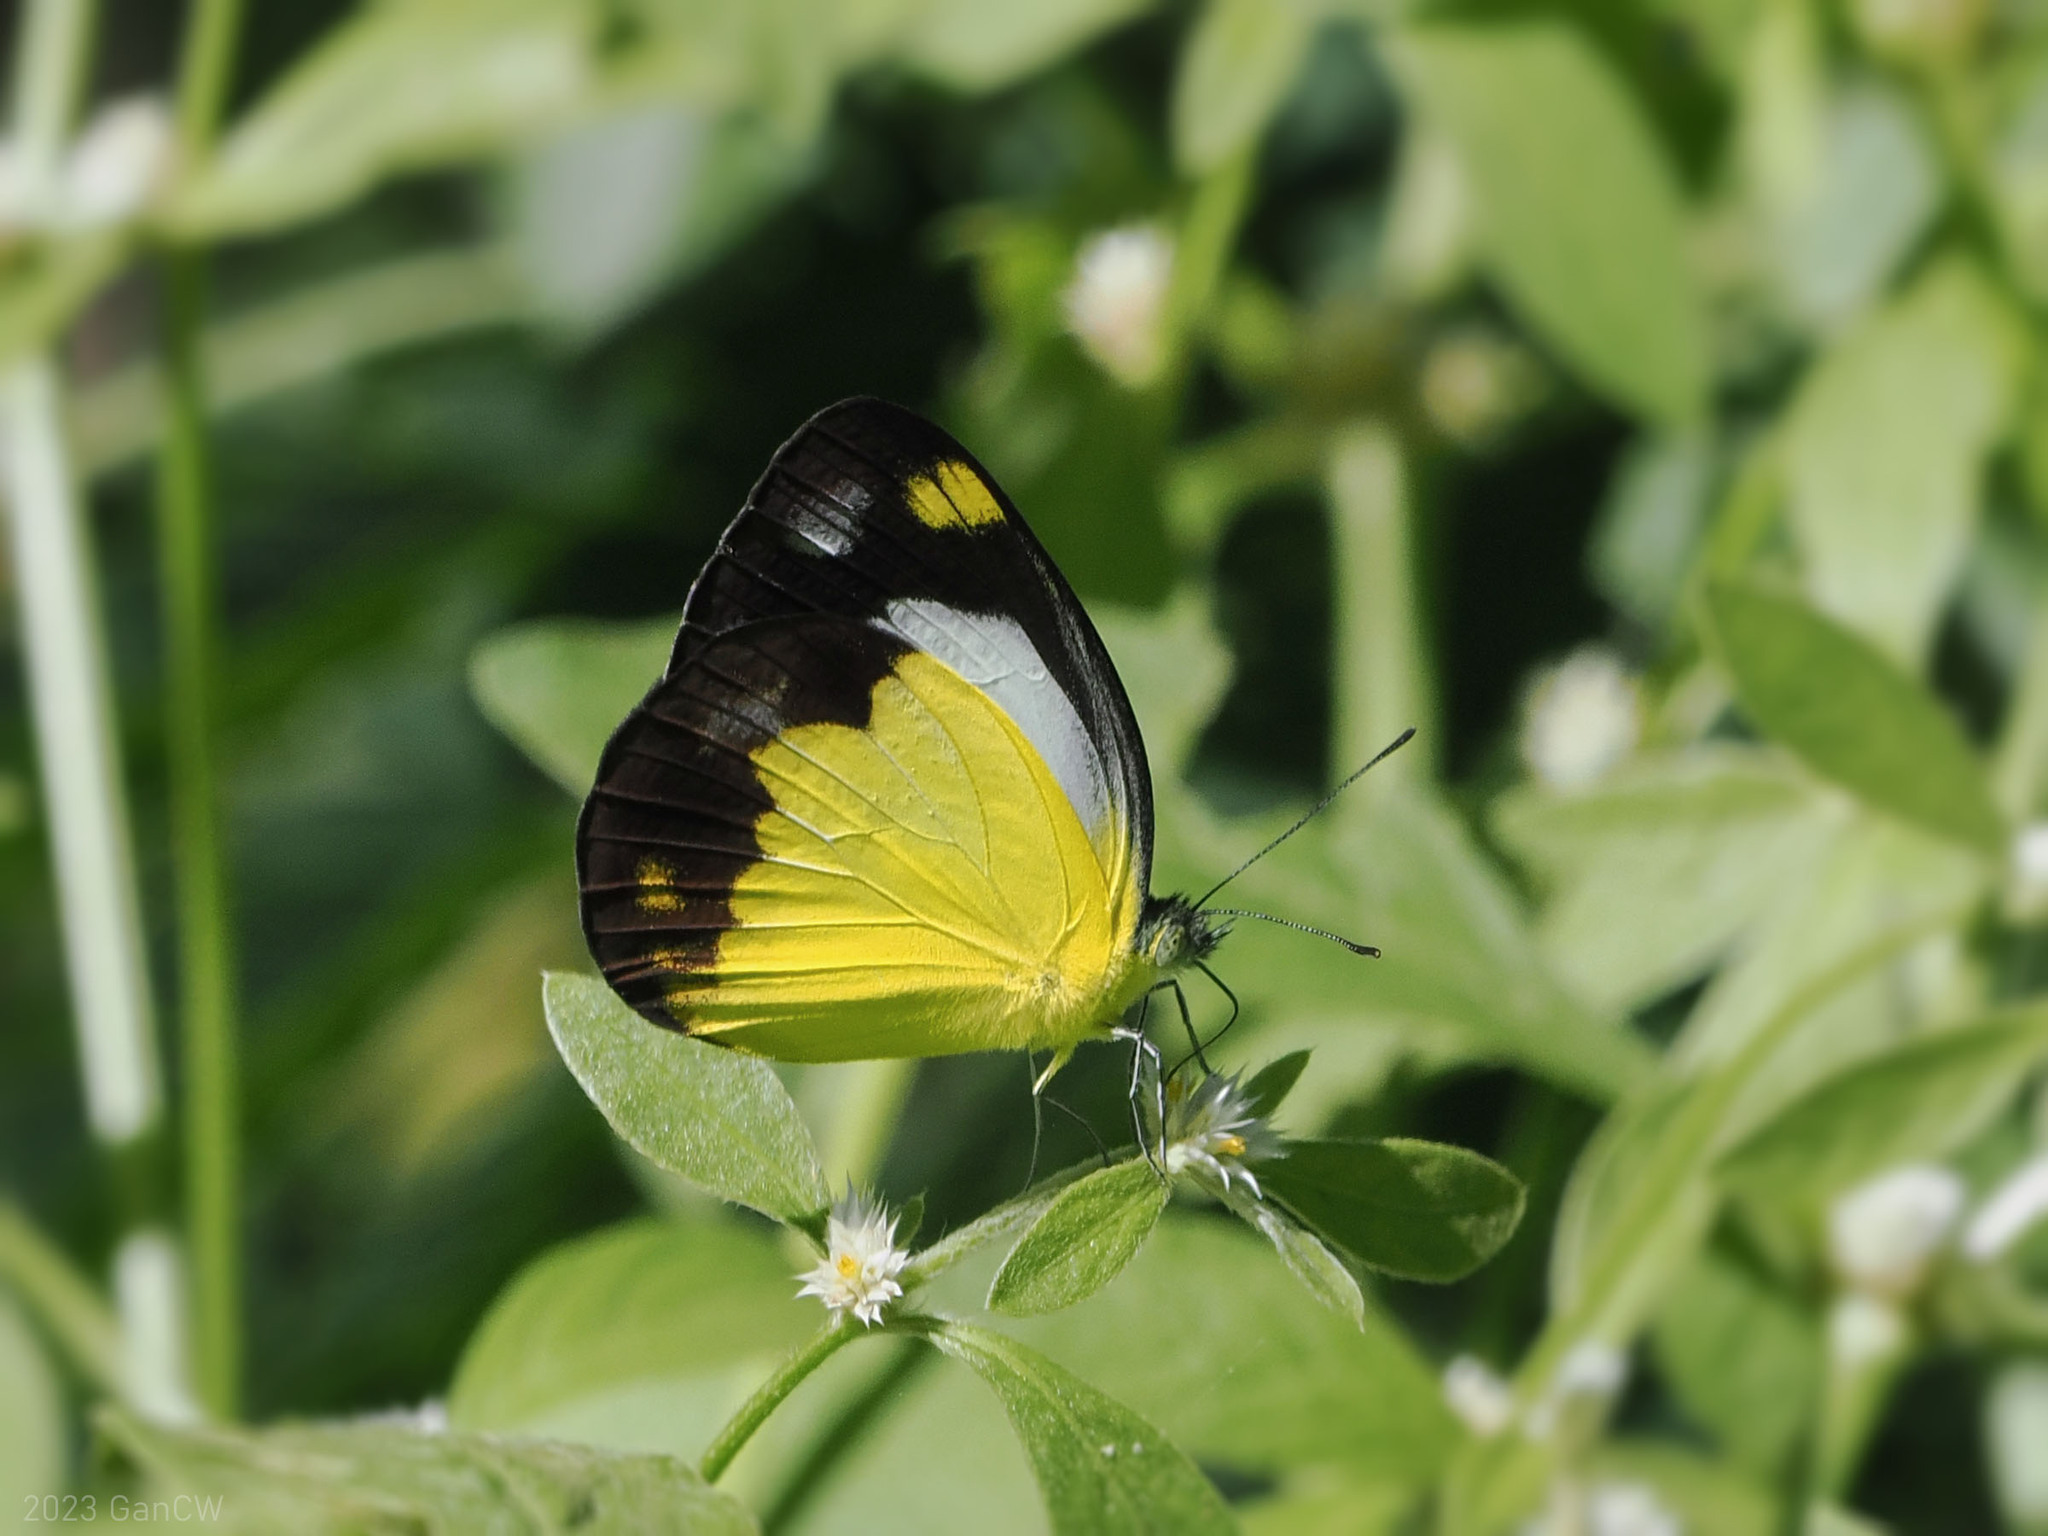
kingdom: Animalia
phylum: Arthropoda
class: Insecta
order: Lepidoptera
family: Pieridae
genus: Cepora
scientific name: Cepora boisduvaliana
